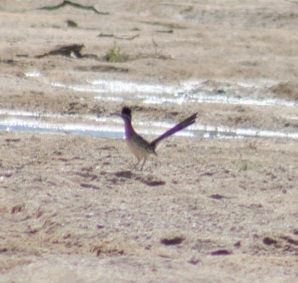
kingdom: Animalia
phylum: Chordata
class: Aves
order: Cuculiformes
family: Cuculidae
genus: Geococcyx
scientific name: Geococcyx californianus
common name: Greater roadrunner
